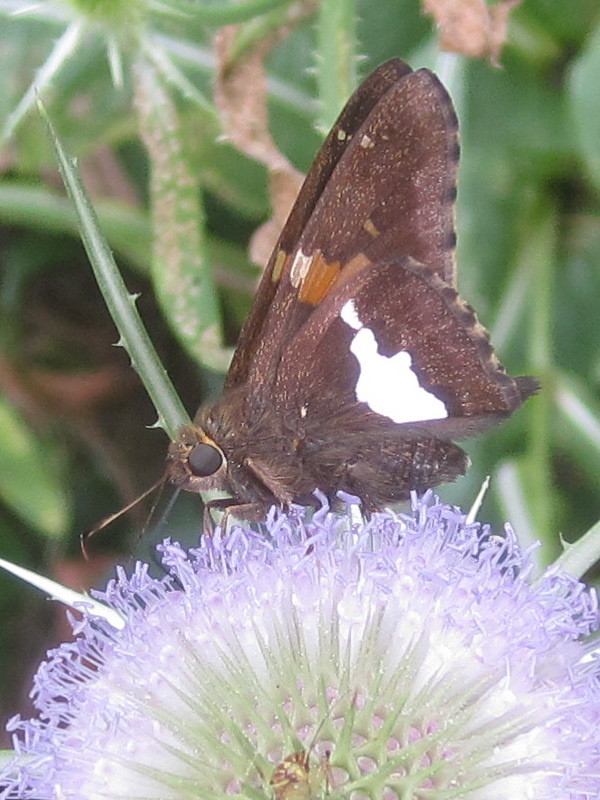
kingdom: Animalia
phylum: Arthropoda
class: Insecta
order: Lepidoptera
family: Hesperiidae
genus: Epargyreus
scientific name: Epargyreus clarus
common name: Silver-spotted skipper
